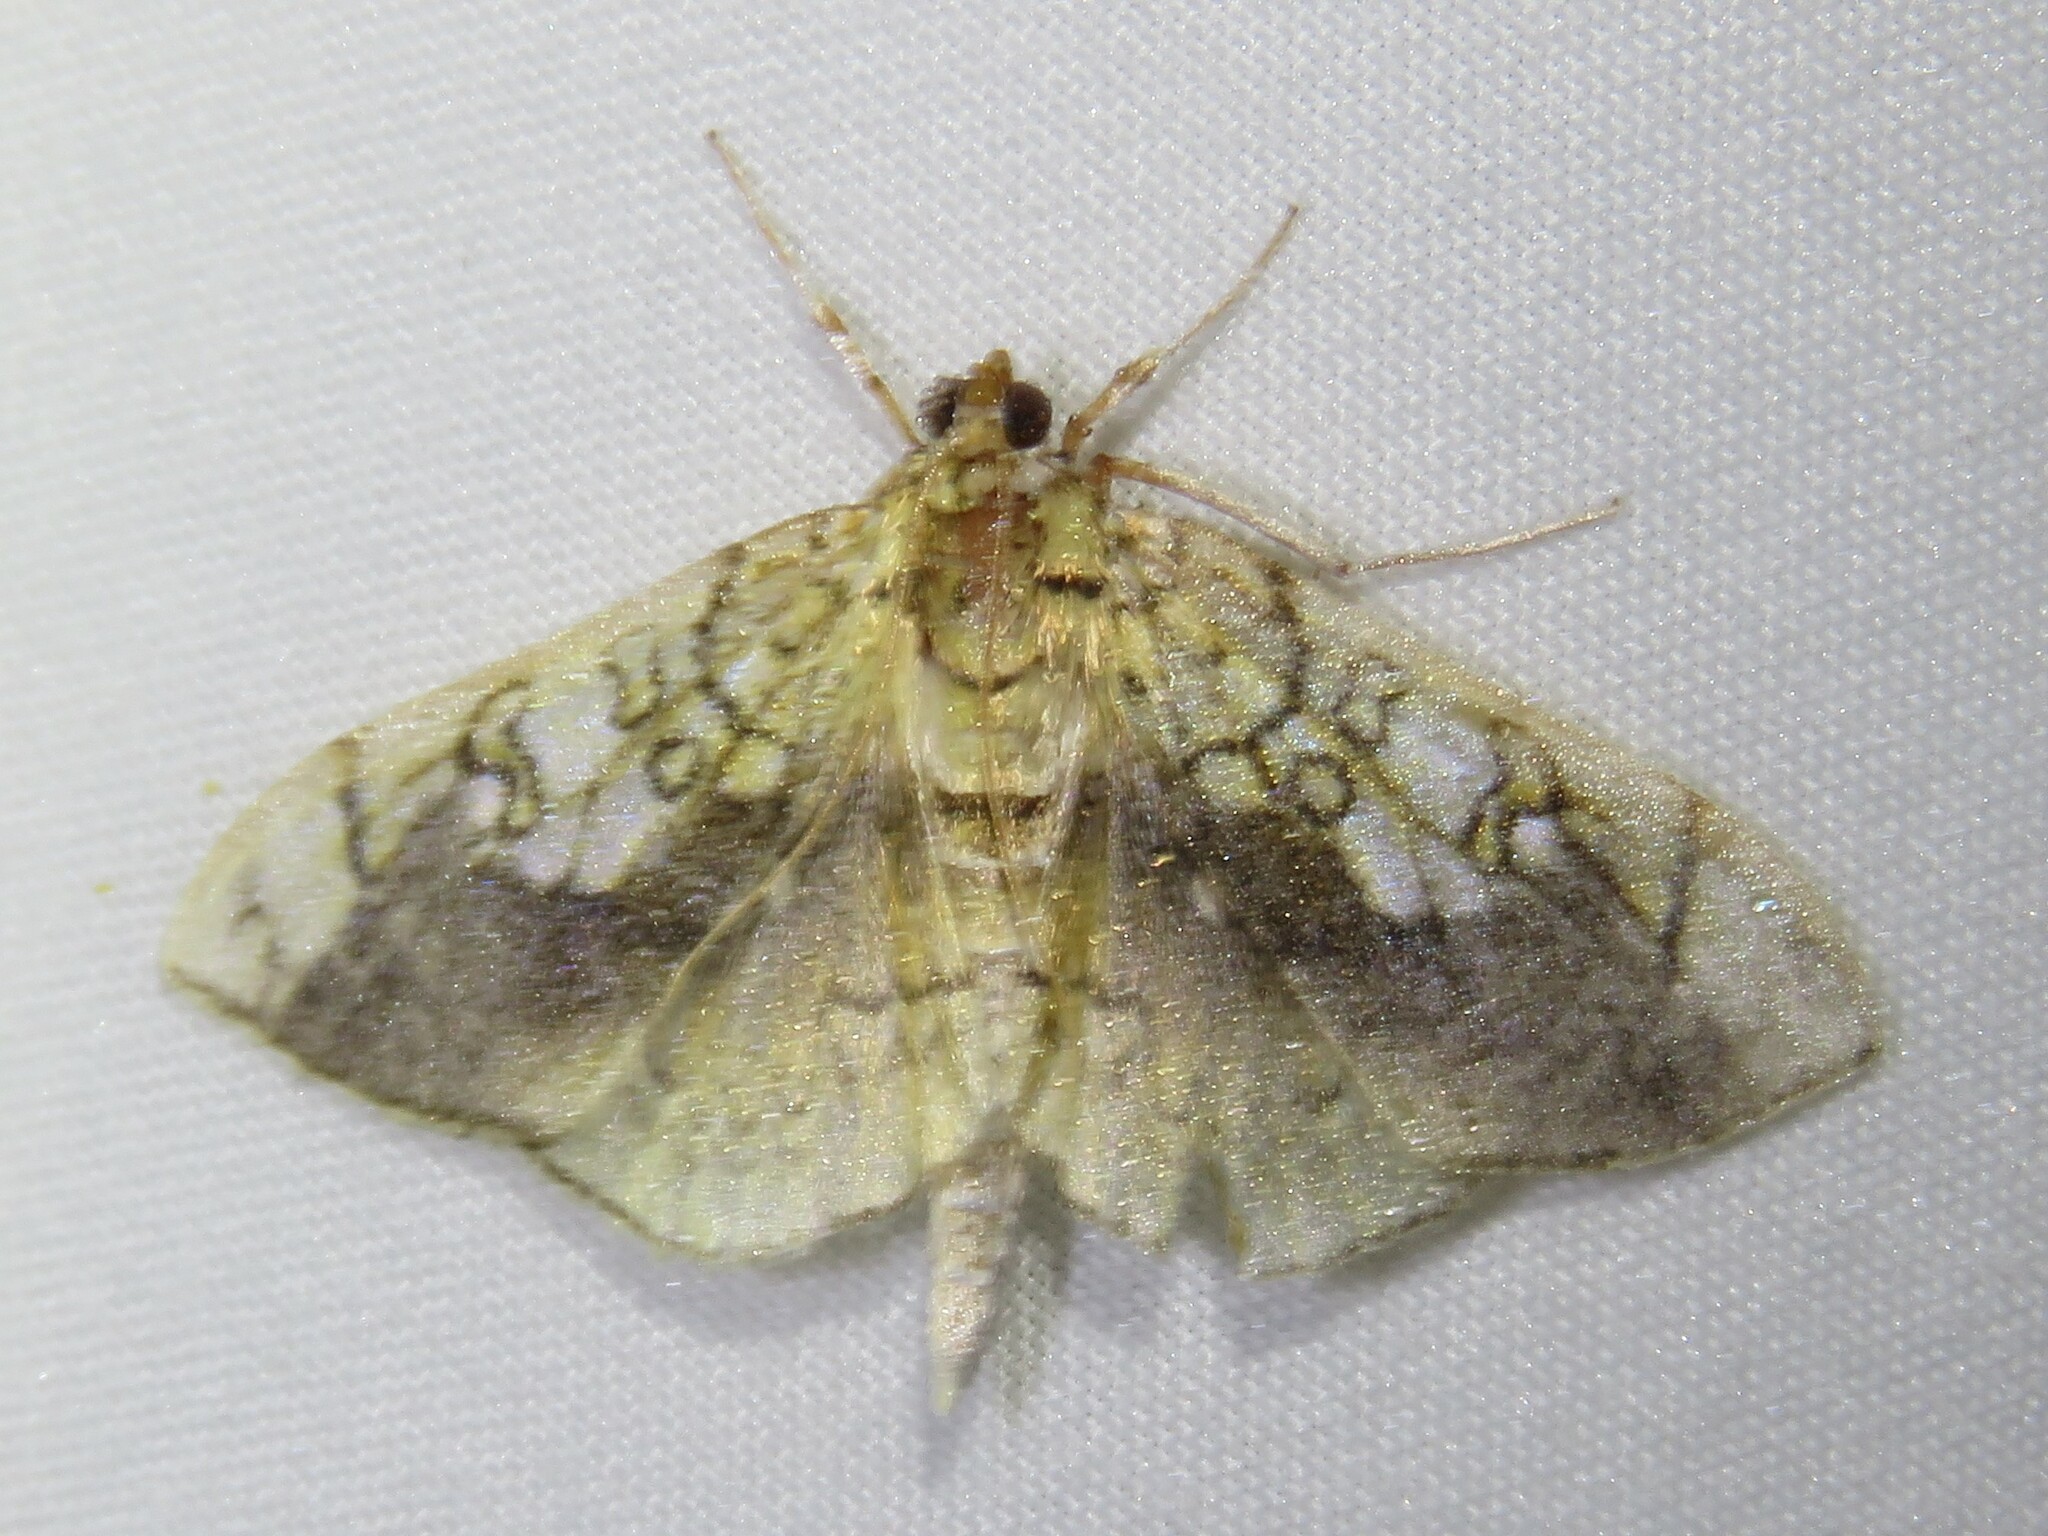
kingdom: Animalia
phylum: Arthropoda
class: Insecta
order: Lepidoptera
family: Crambidae
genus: Pantographa
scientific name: Pantographa limata
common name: Basswood leafroller moth
